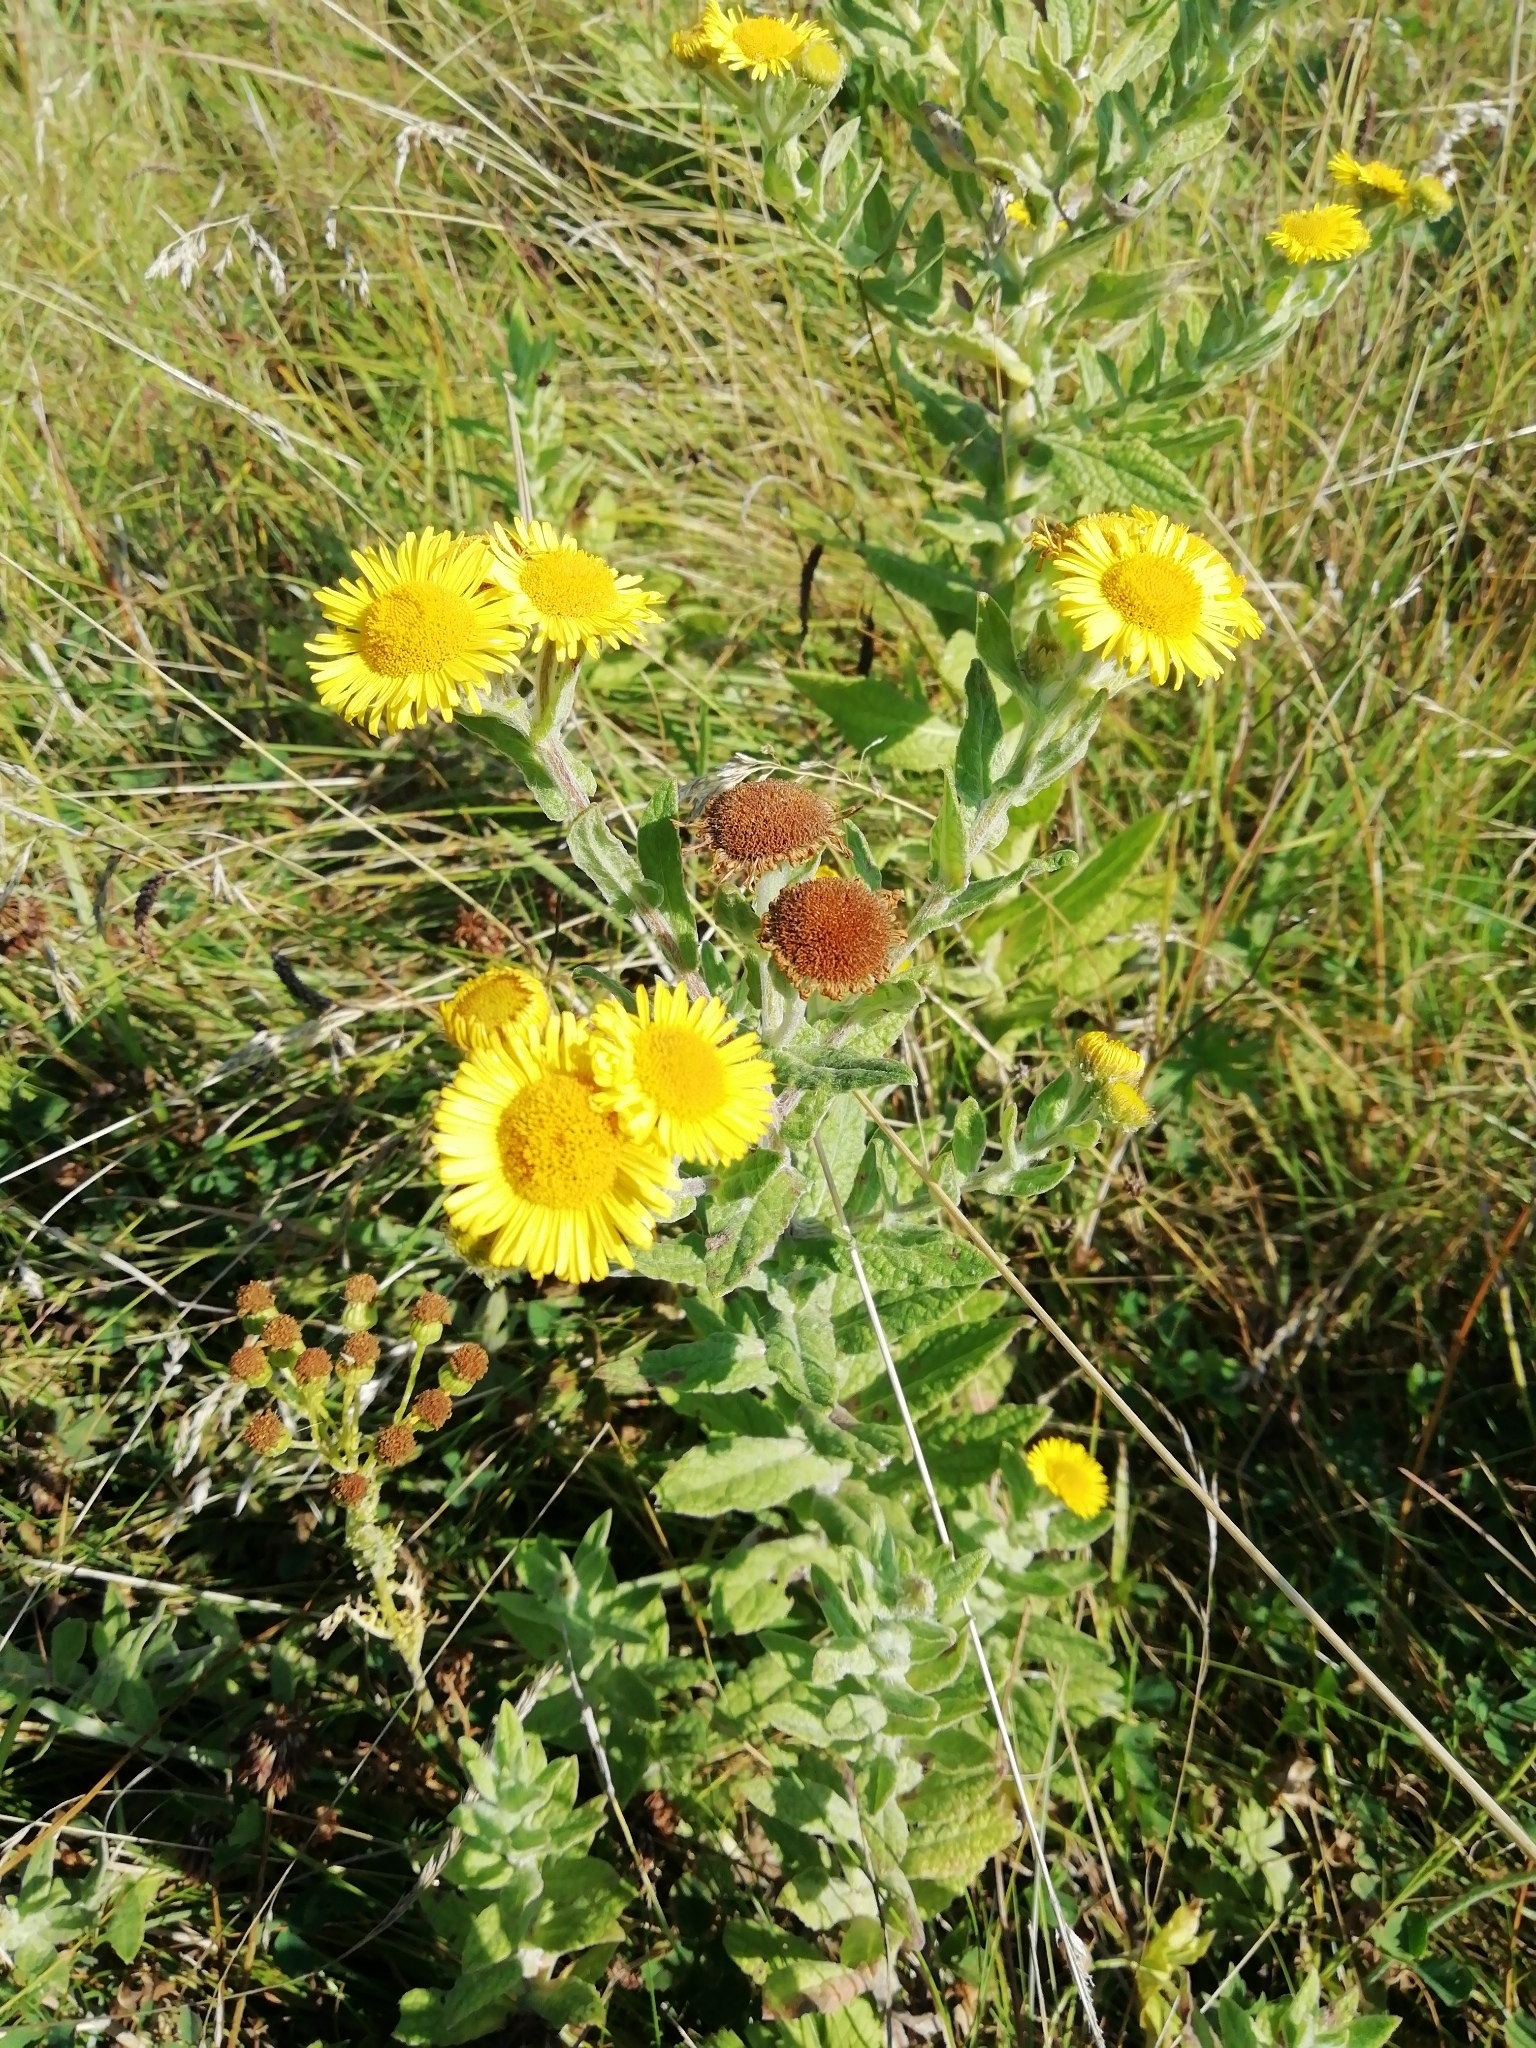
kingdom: Plantae
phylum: Tracheophyta
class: Magnoliopsida
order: Asterales
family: Asteraceae
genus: Pulicaria
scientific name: Pulicaria dysenterica
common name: Common fleabane
